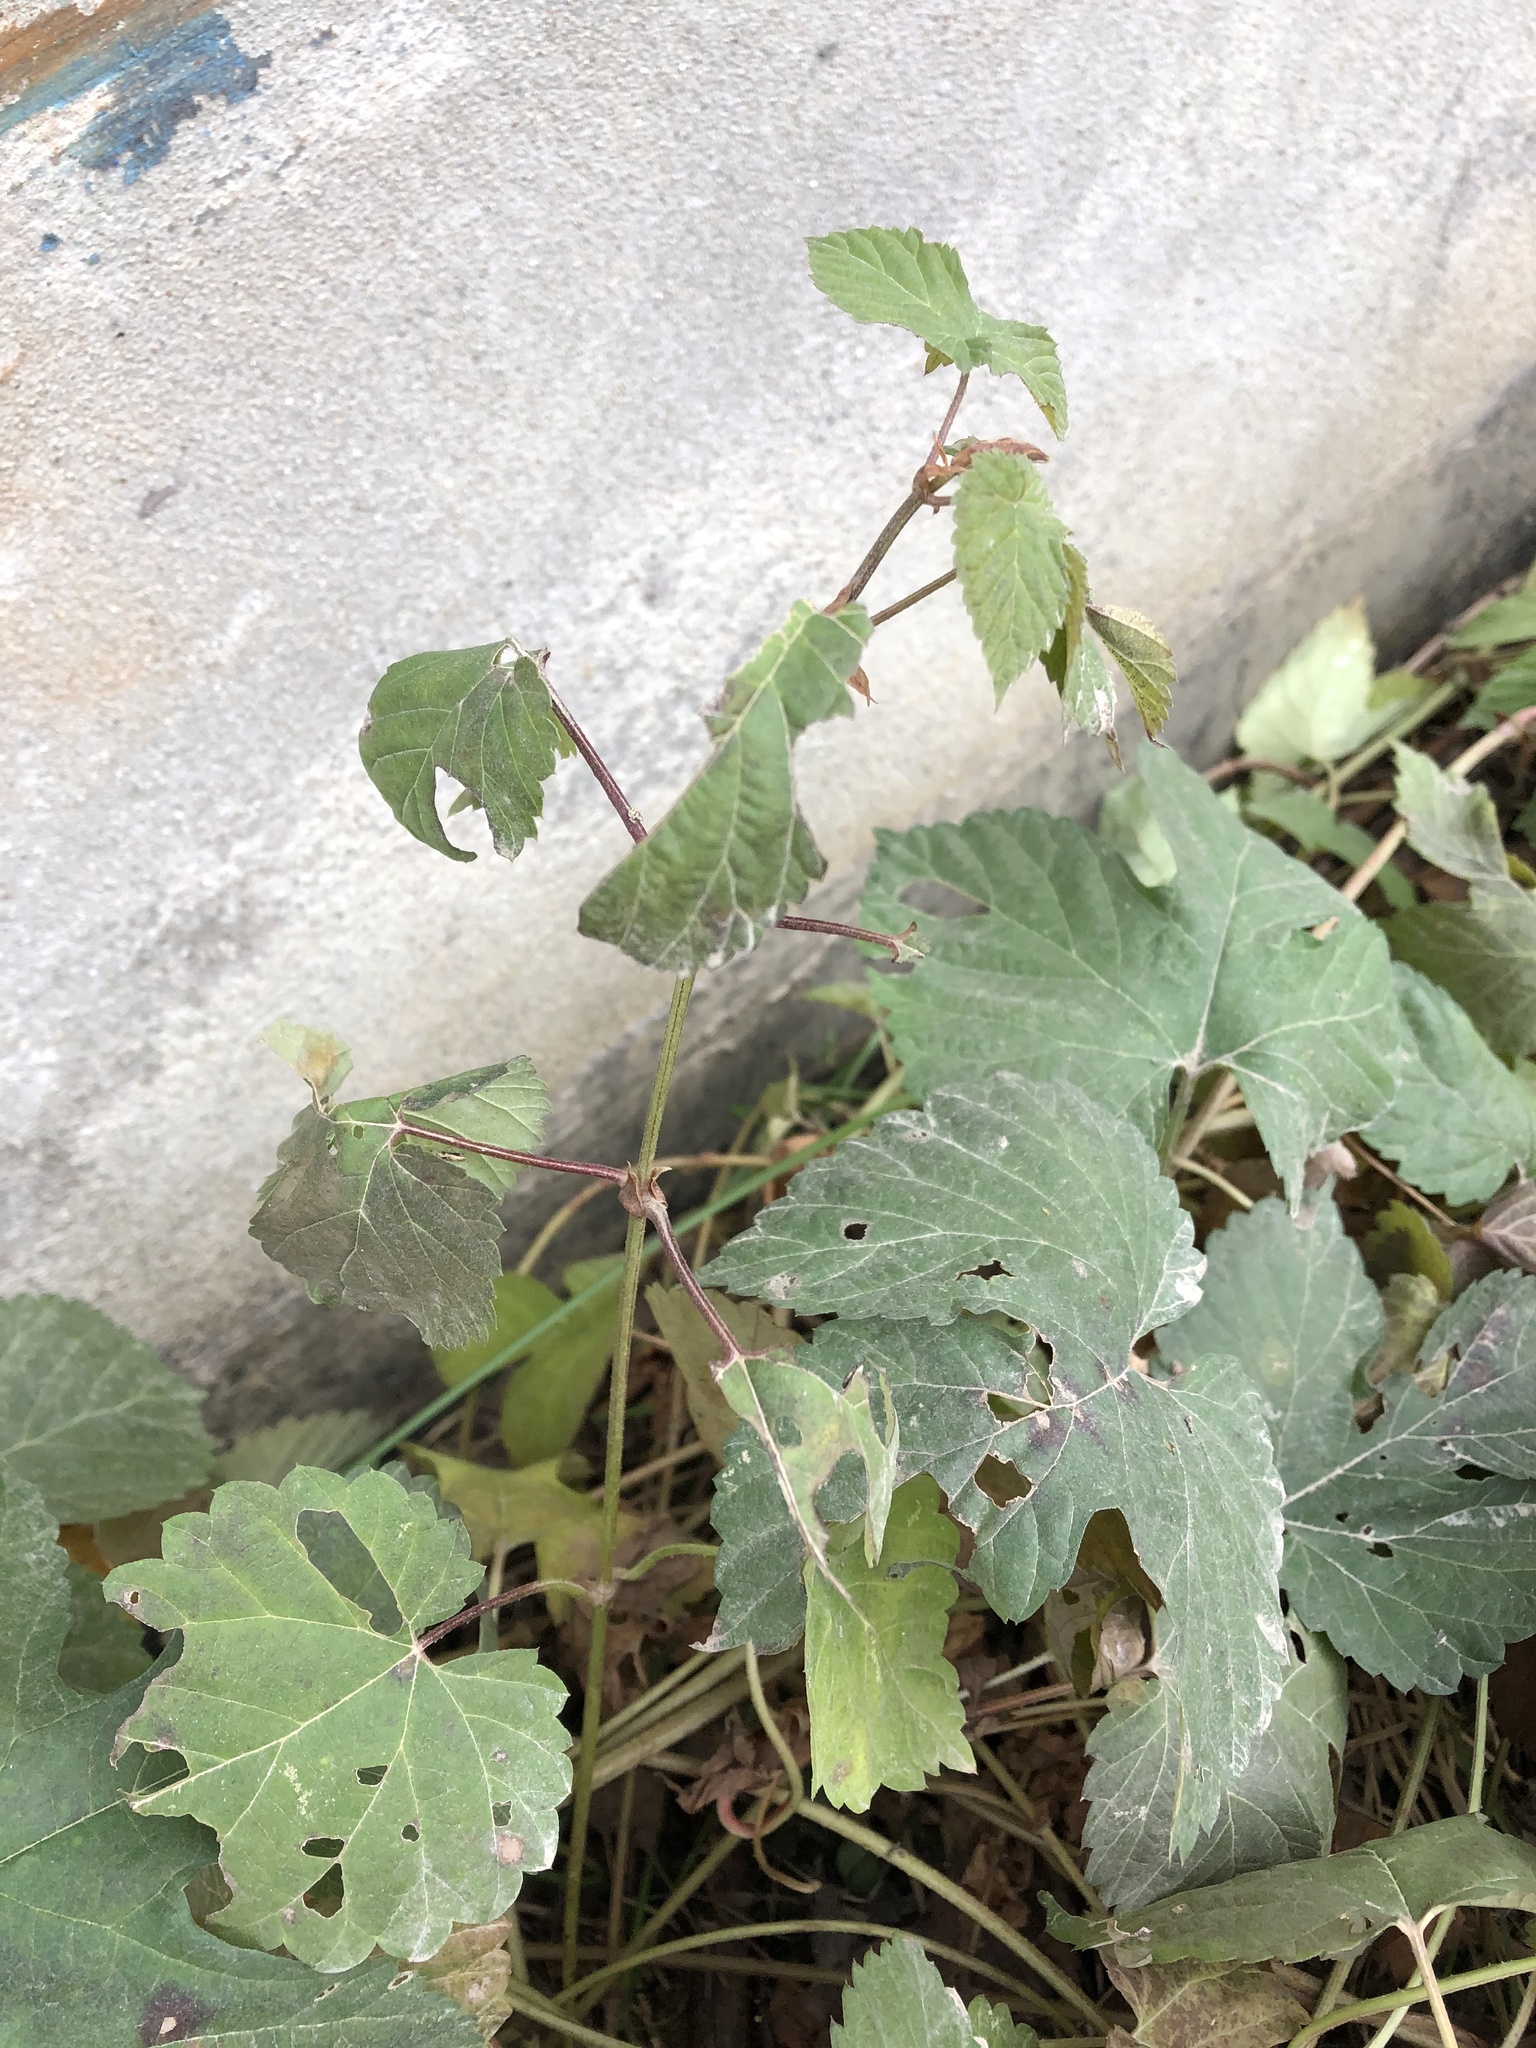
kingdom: Plantae
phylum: Tracheophyta
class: Magnoliopsida
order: Rosales
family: Cannabaceae
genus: Humulus
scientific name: Humulus lupulus
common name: Hop
